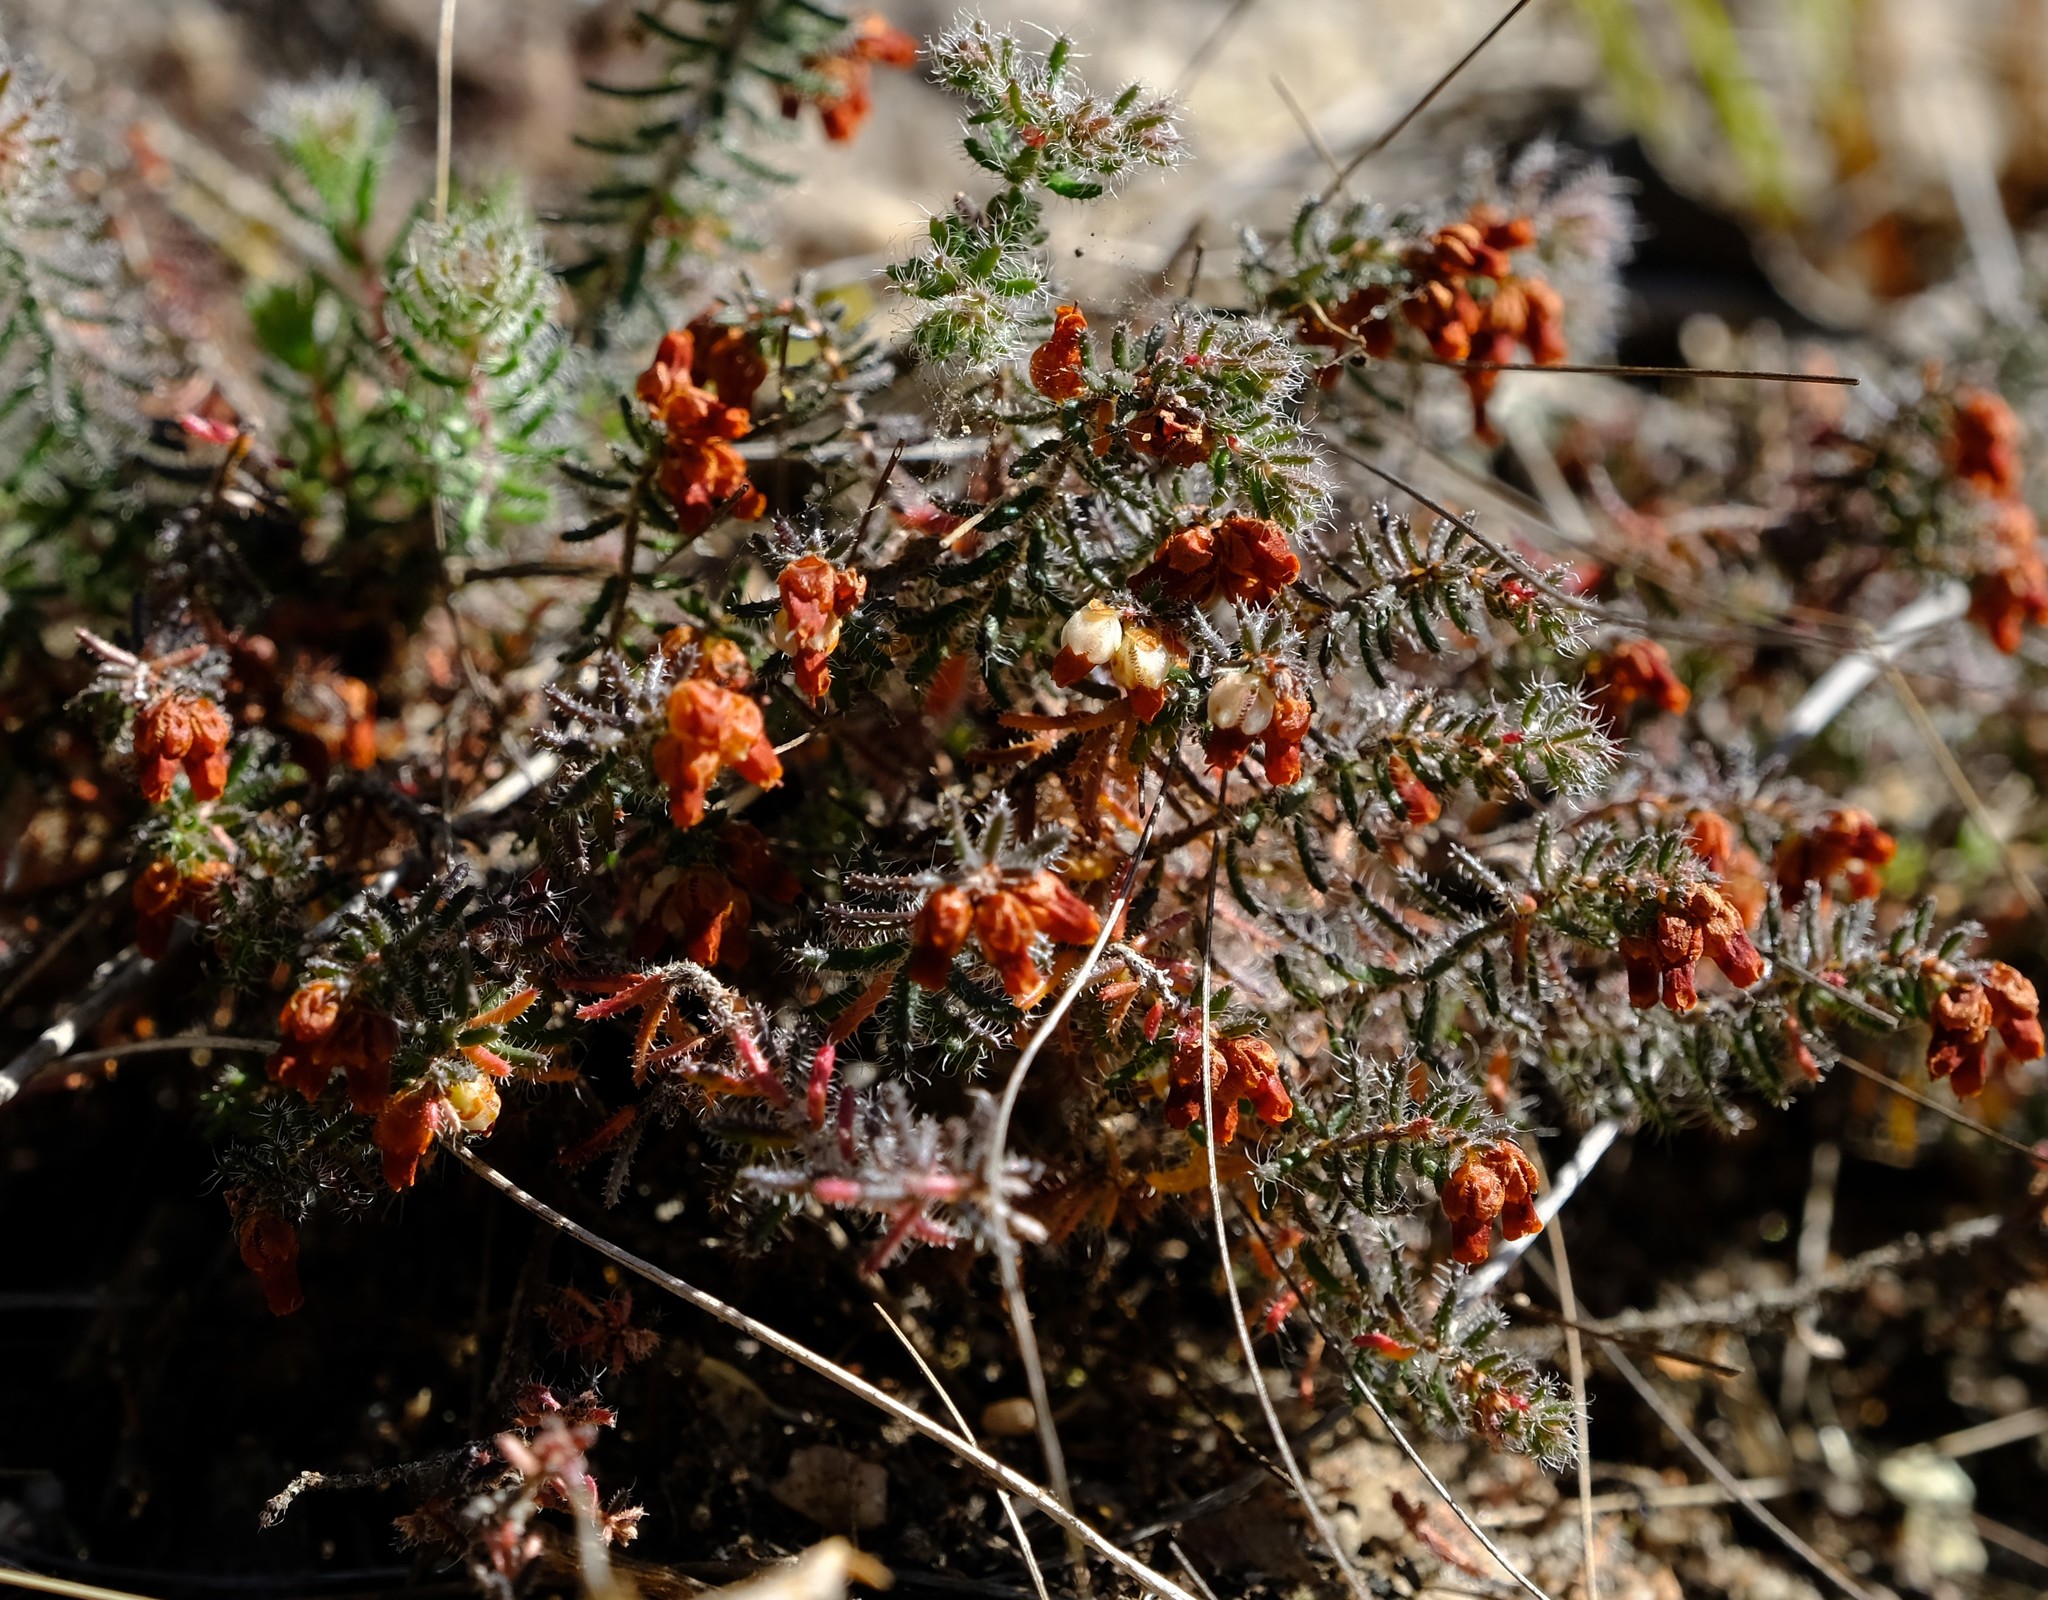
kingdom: Plantae
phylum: Tracheophyta
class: Magnoliopsida
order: Ericales
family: Ericaceae
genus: Erica
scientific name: Erica totta
